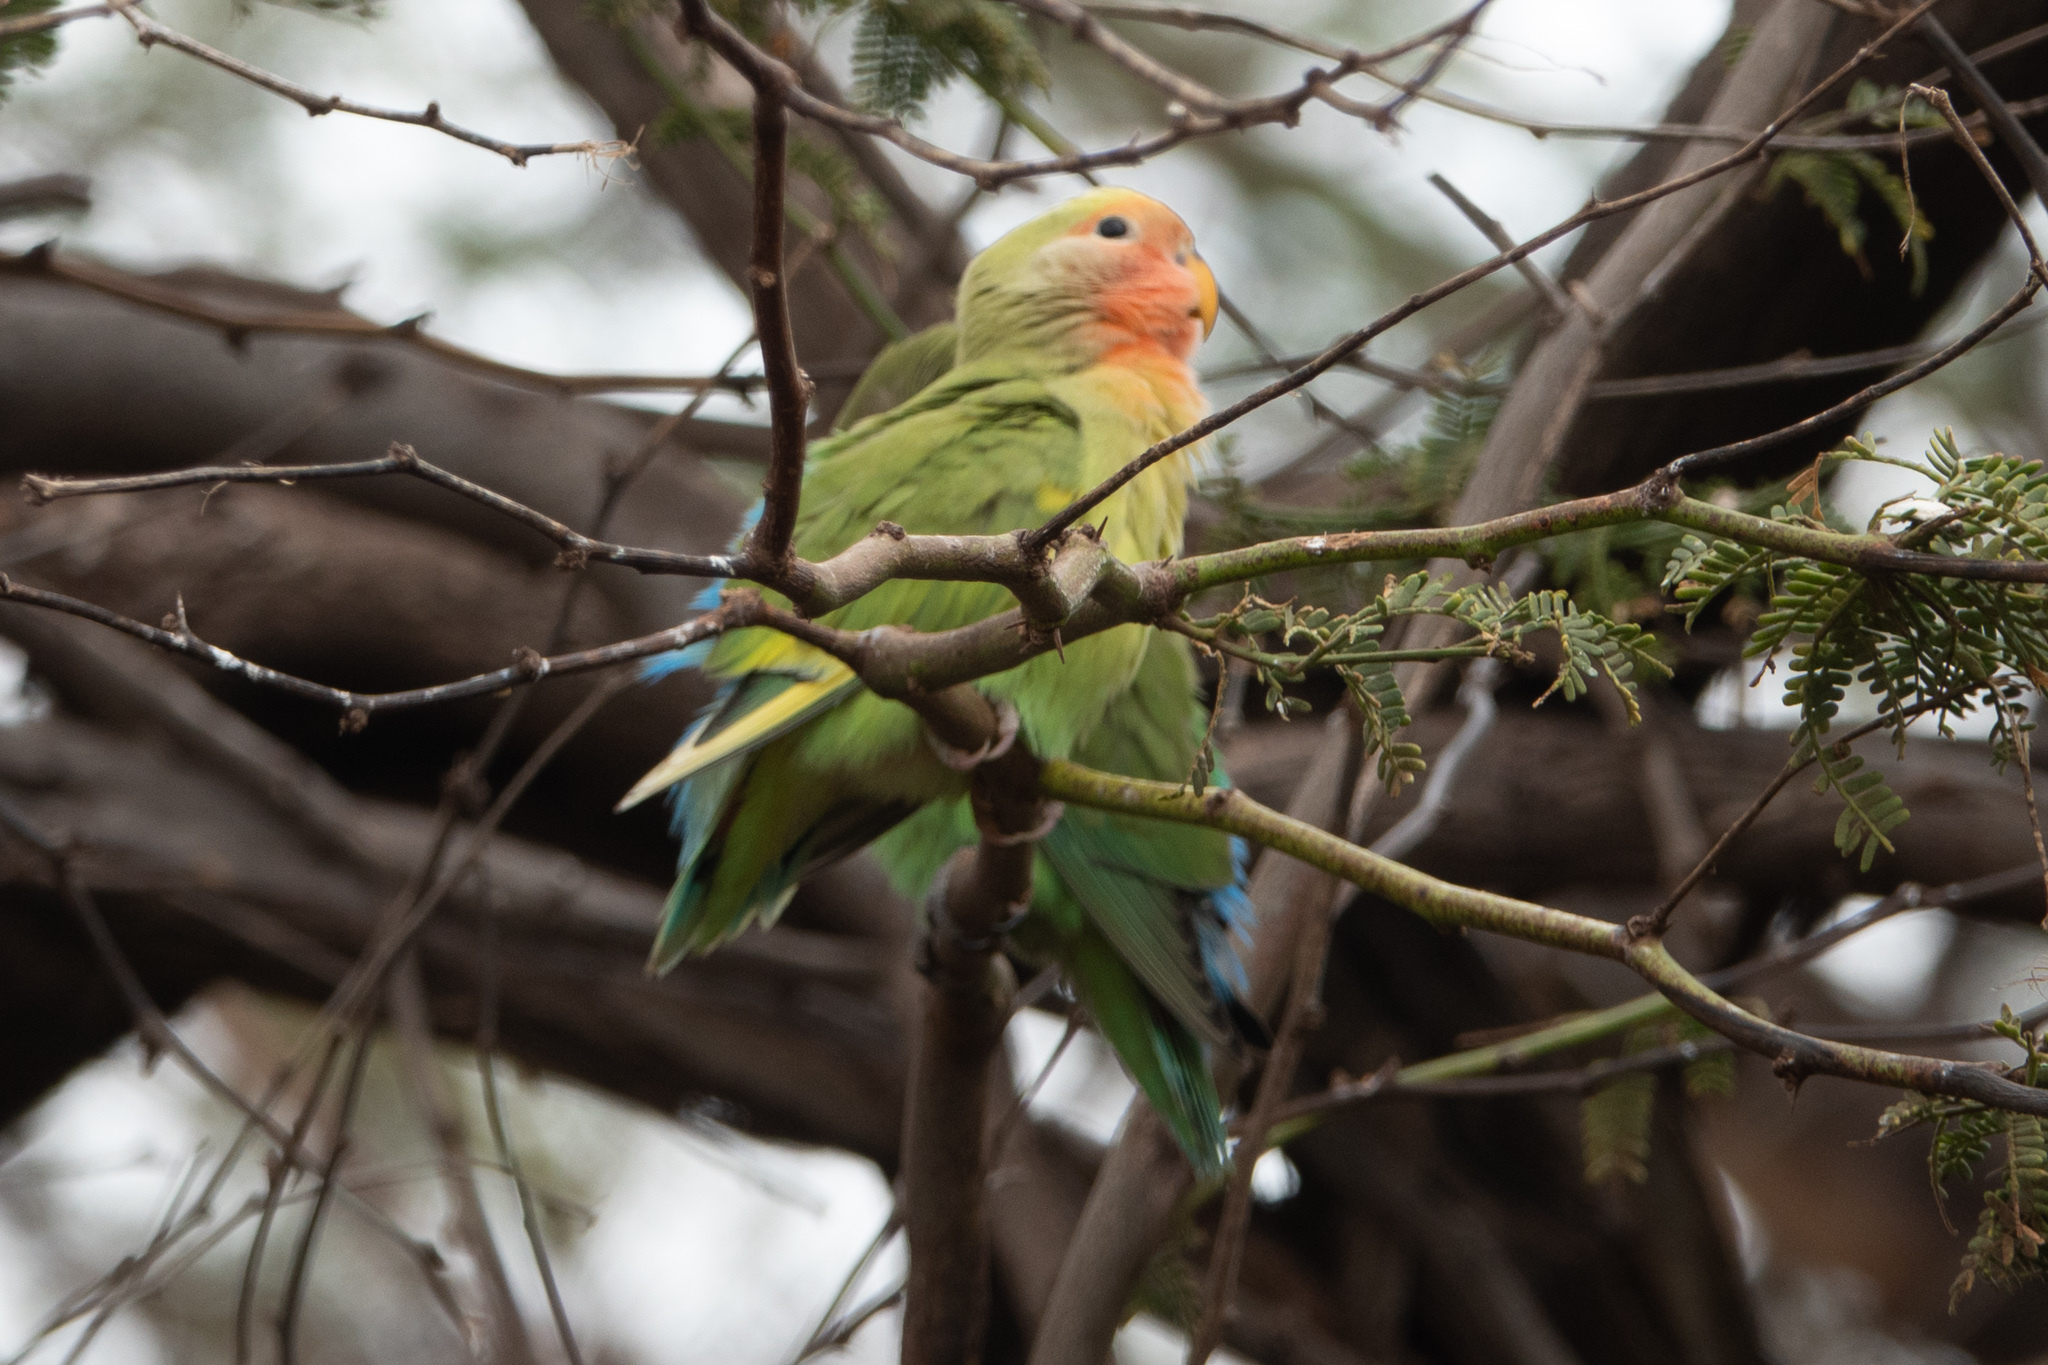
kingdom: Animalia
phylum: Chordata
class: Aves
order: Psittaciformes
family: Psittacidae
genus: Agapornis
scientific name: Agapornis roseicollis
